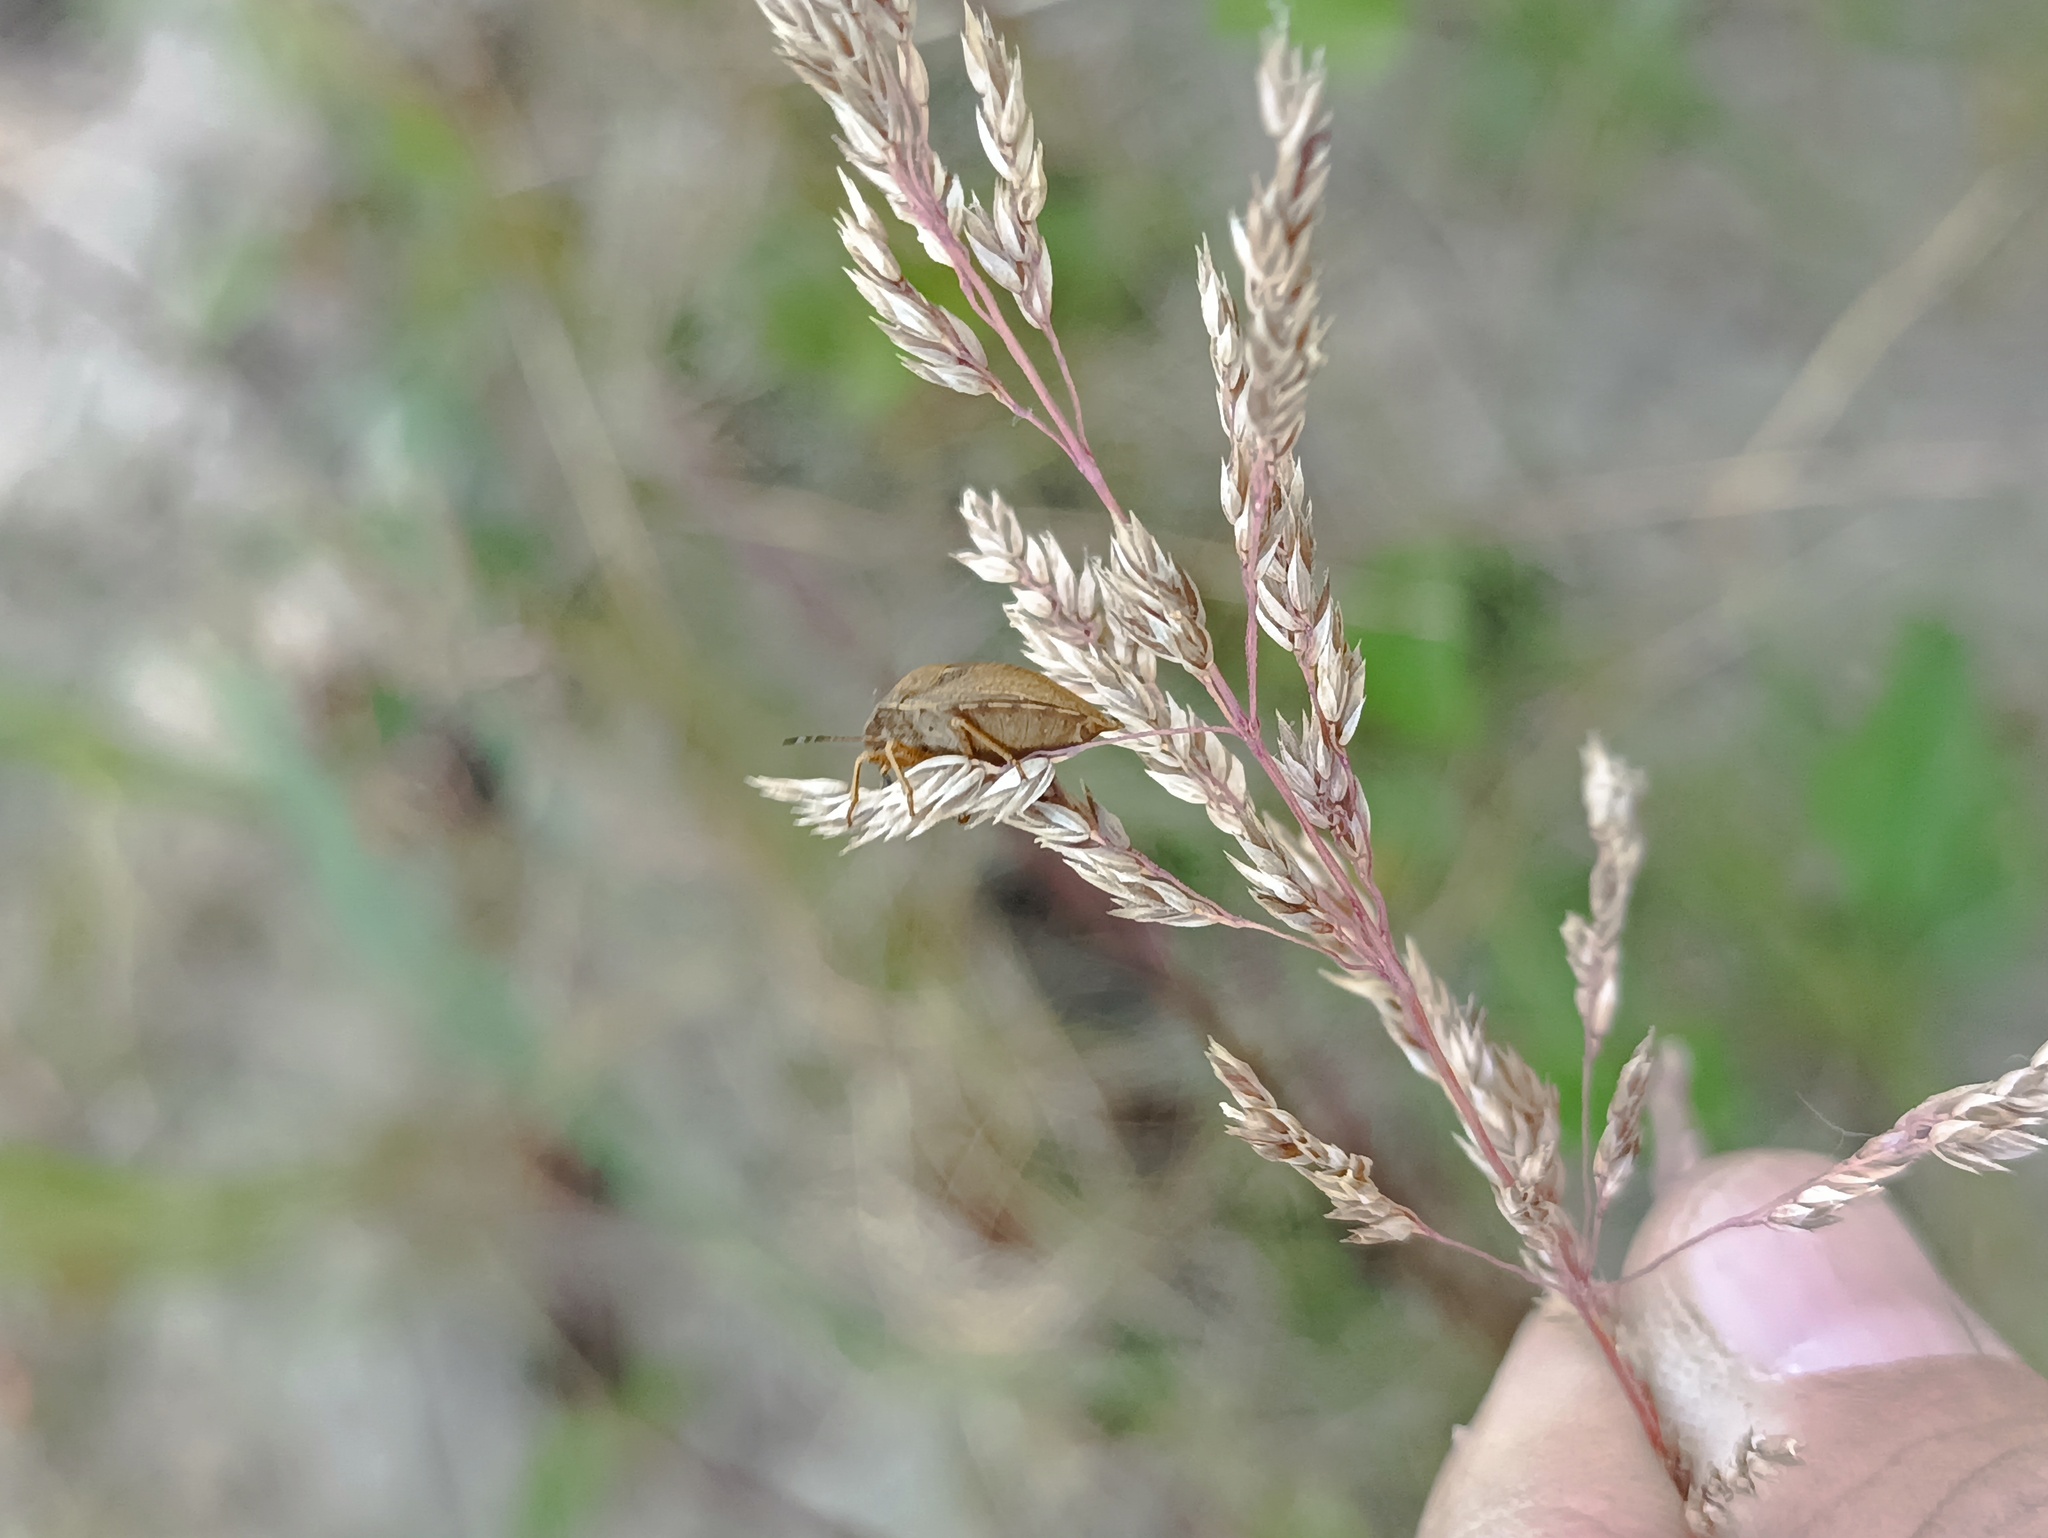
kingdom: Animalia
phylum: Arthropoda
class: Insecta
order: Hemiptera
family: Scutelleridae
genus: Eurygaster
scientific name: Eurygaster testudinaria
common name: Tortoise bug
